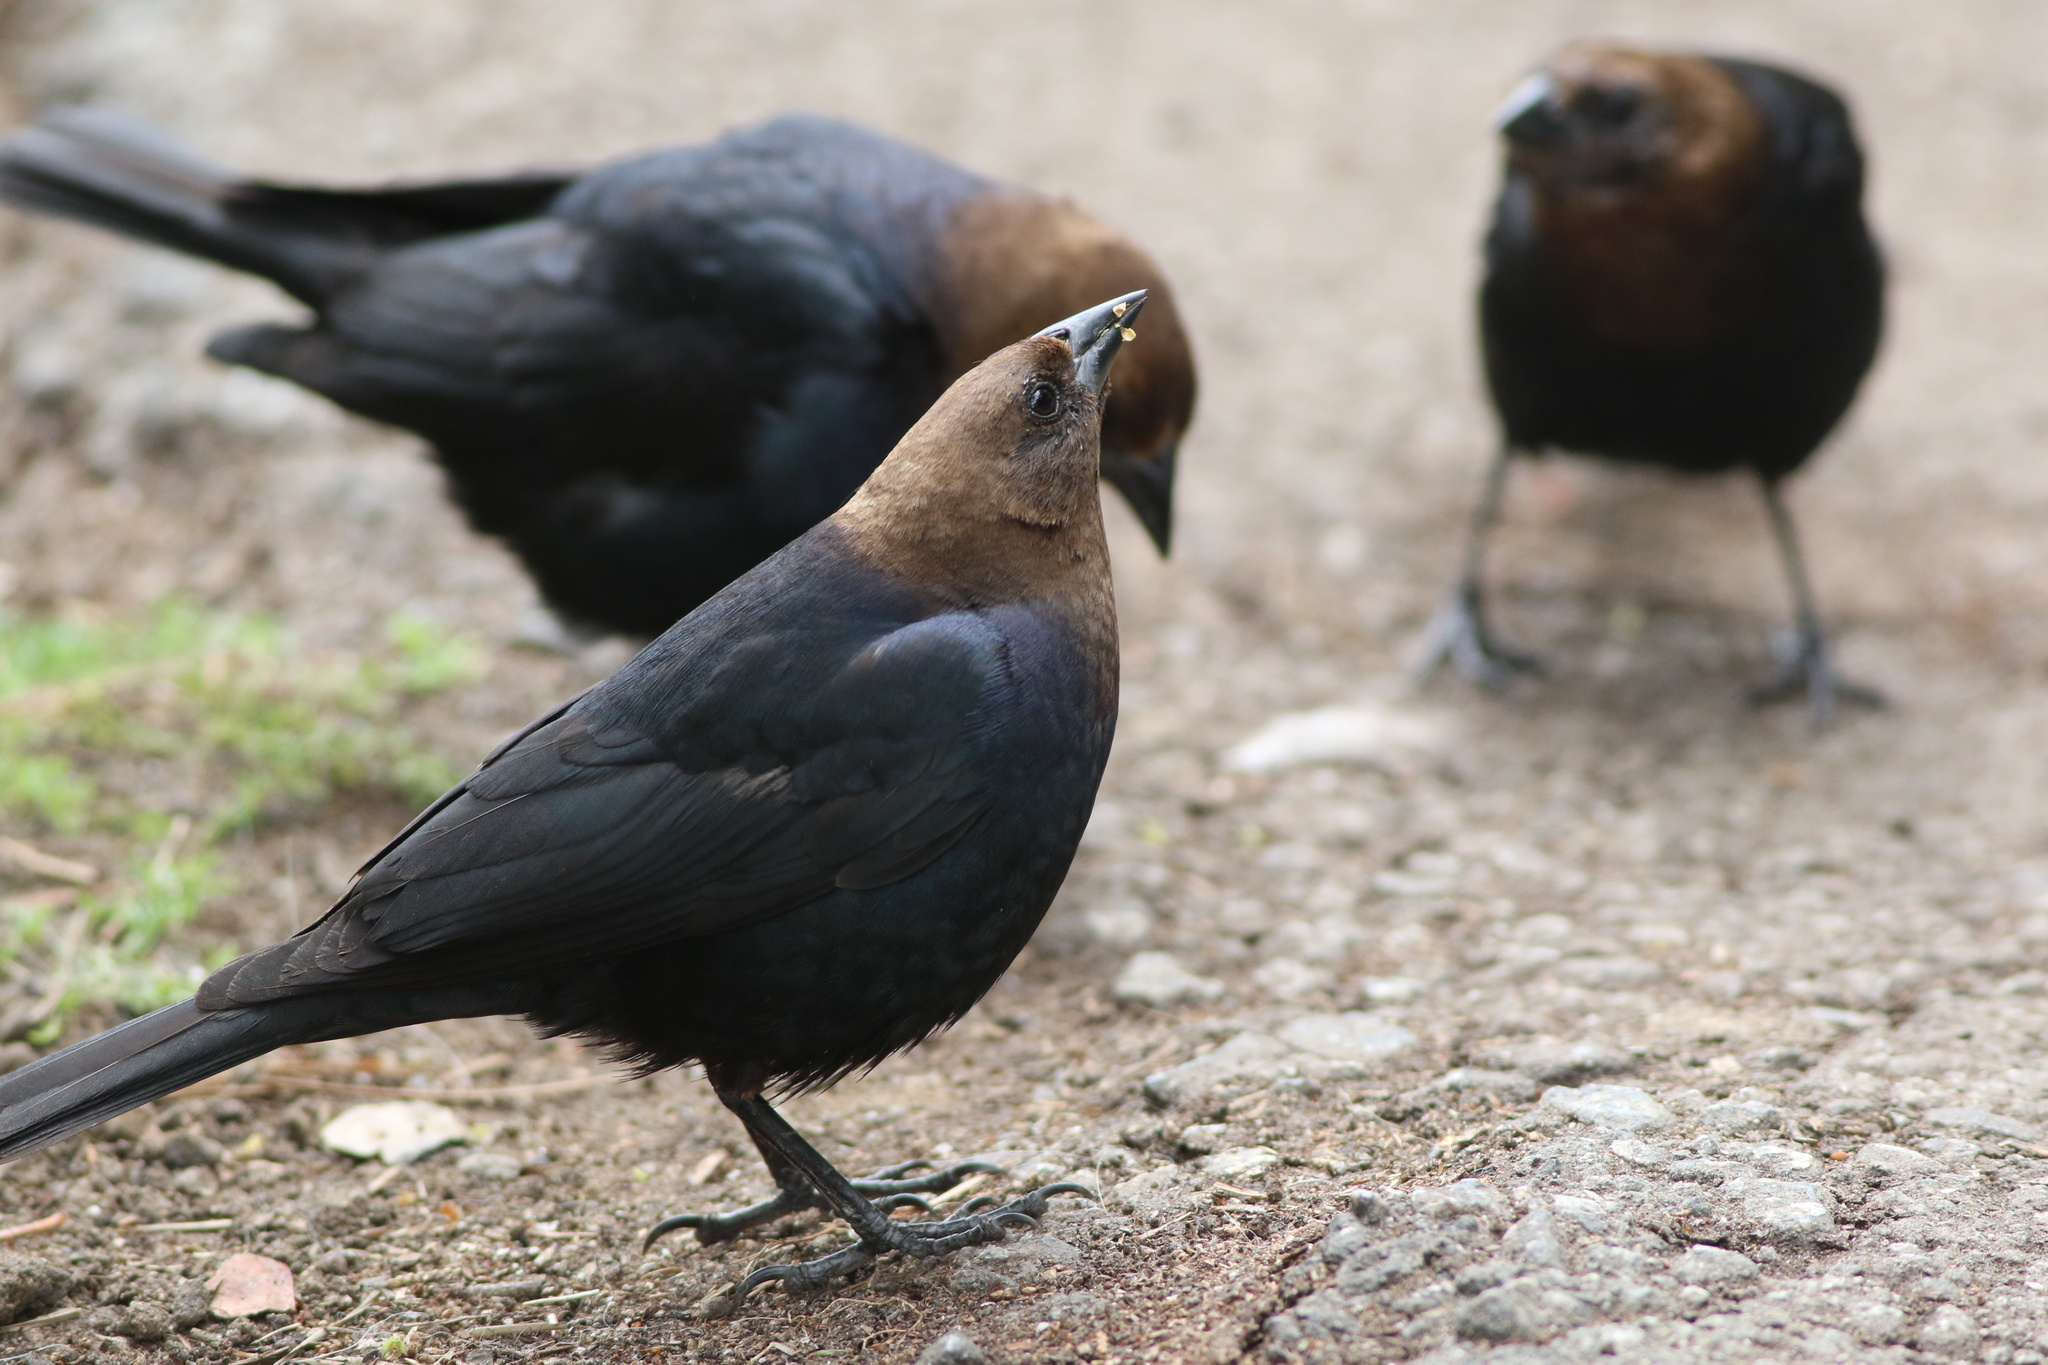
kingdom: Animalia
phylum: Chordata
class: Aves
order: Passeriformes
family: Icteridae
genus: Molothrus
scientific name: Molothrus ater
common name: Brown-headed cowbird
